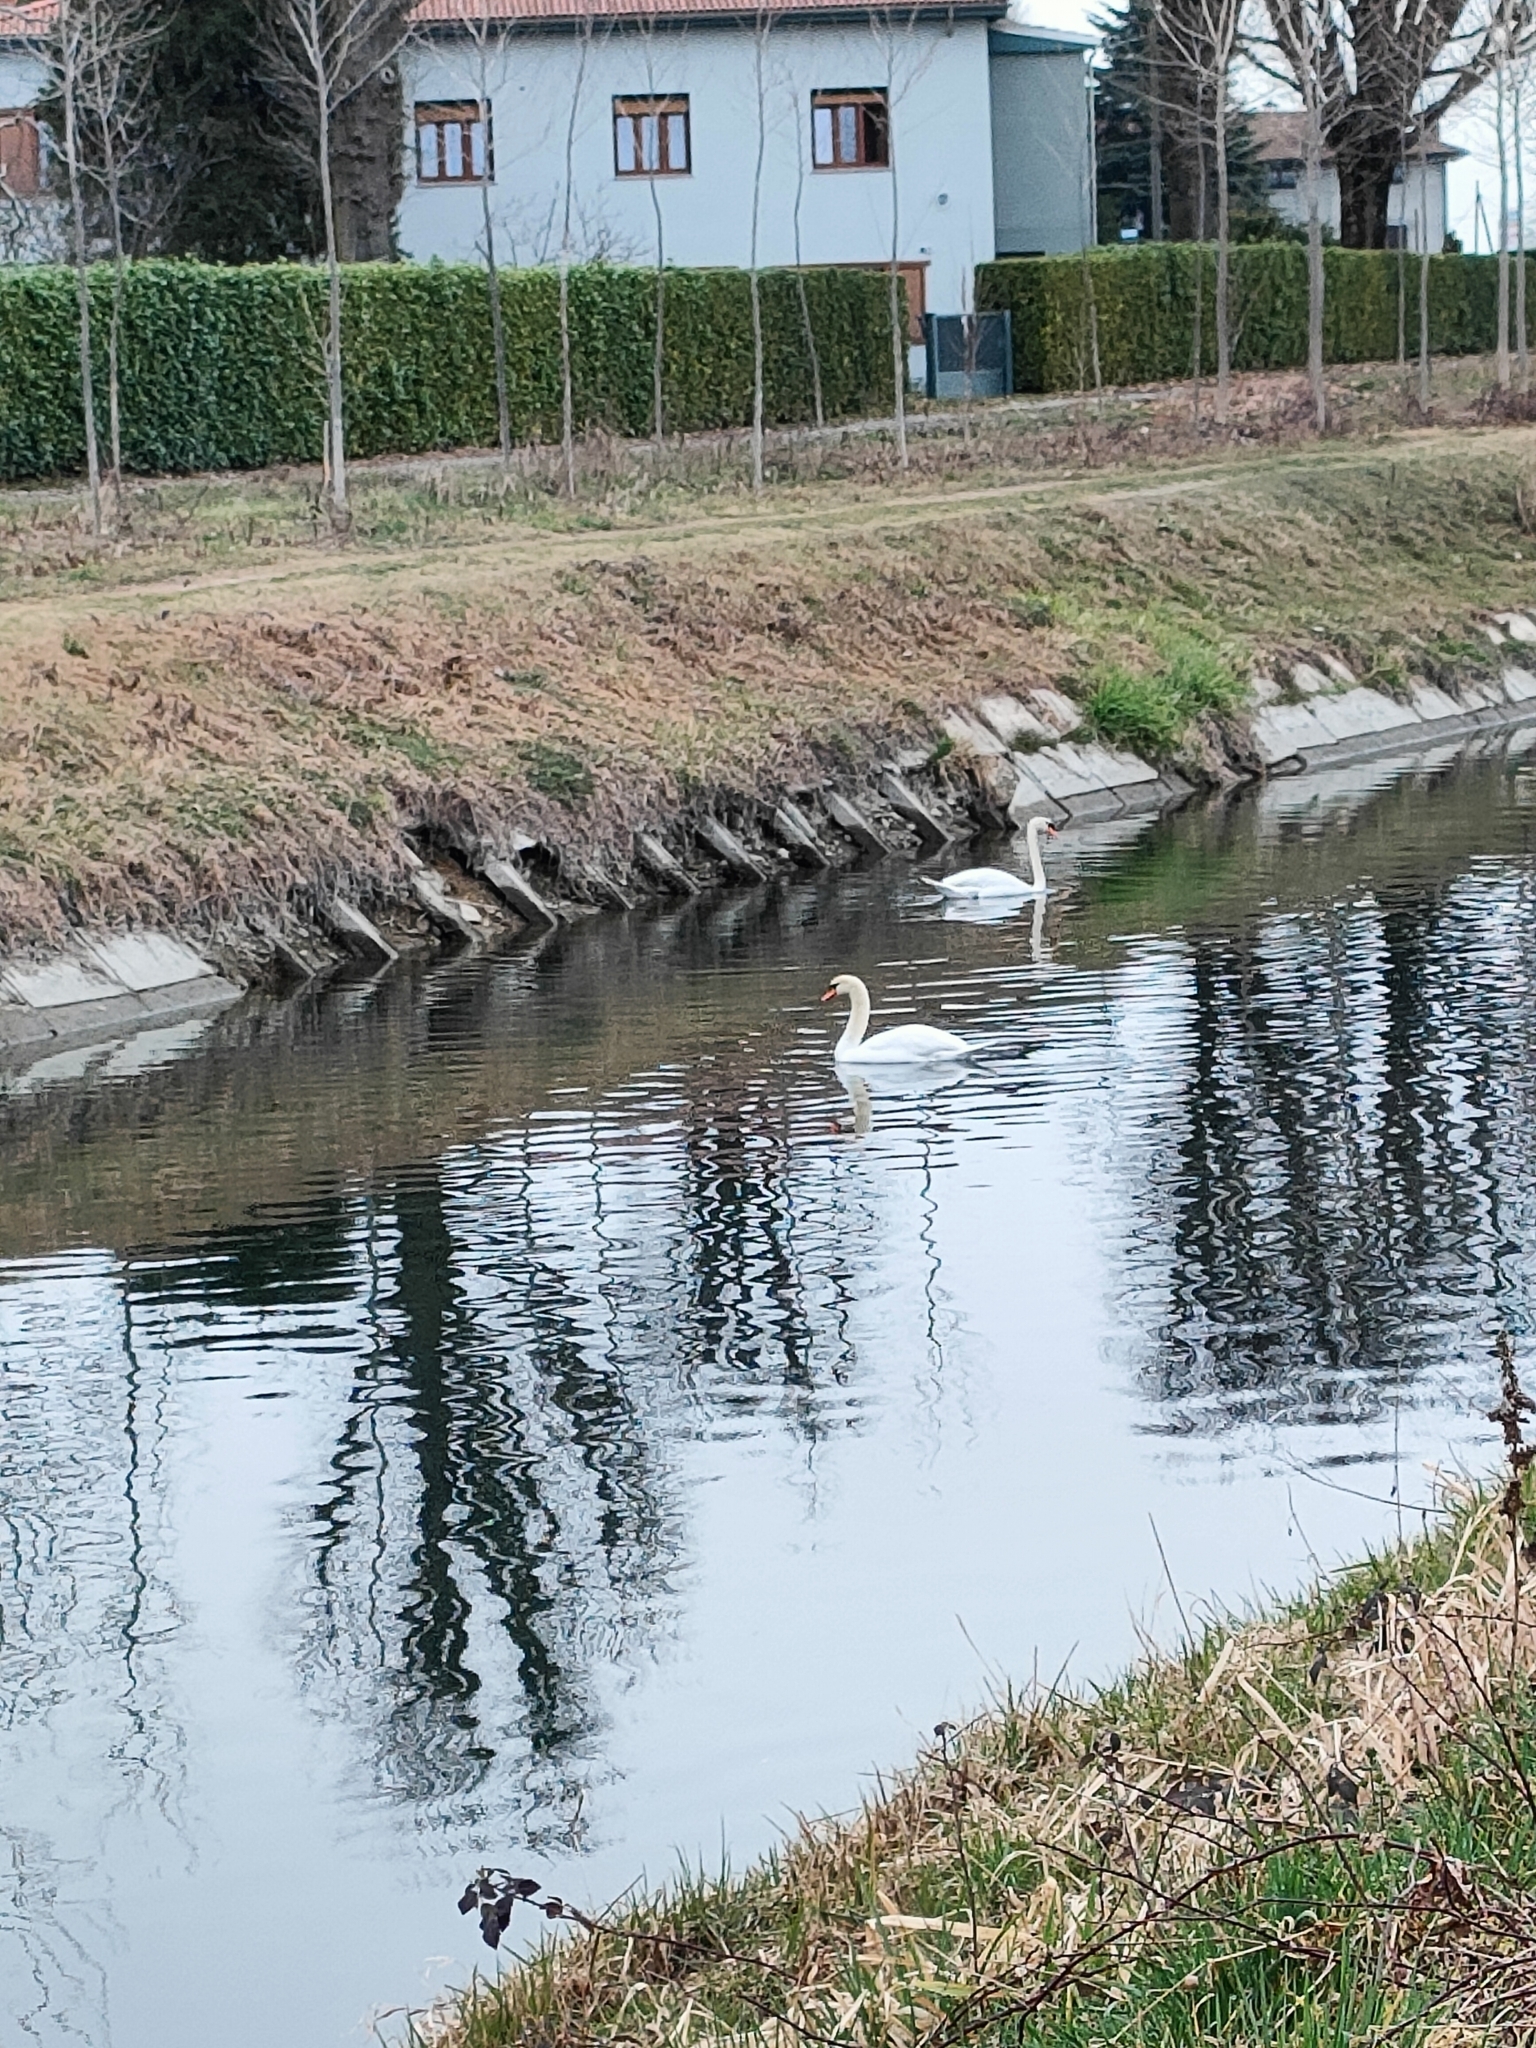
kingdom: Animalia
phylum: Chordata
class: Aves
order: Anseriformes
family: Anatidae
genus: Cygnus
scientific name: Cygnus olor
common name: Mute swan
